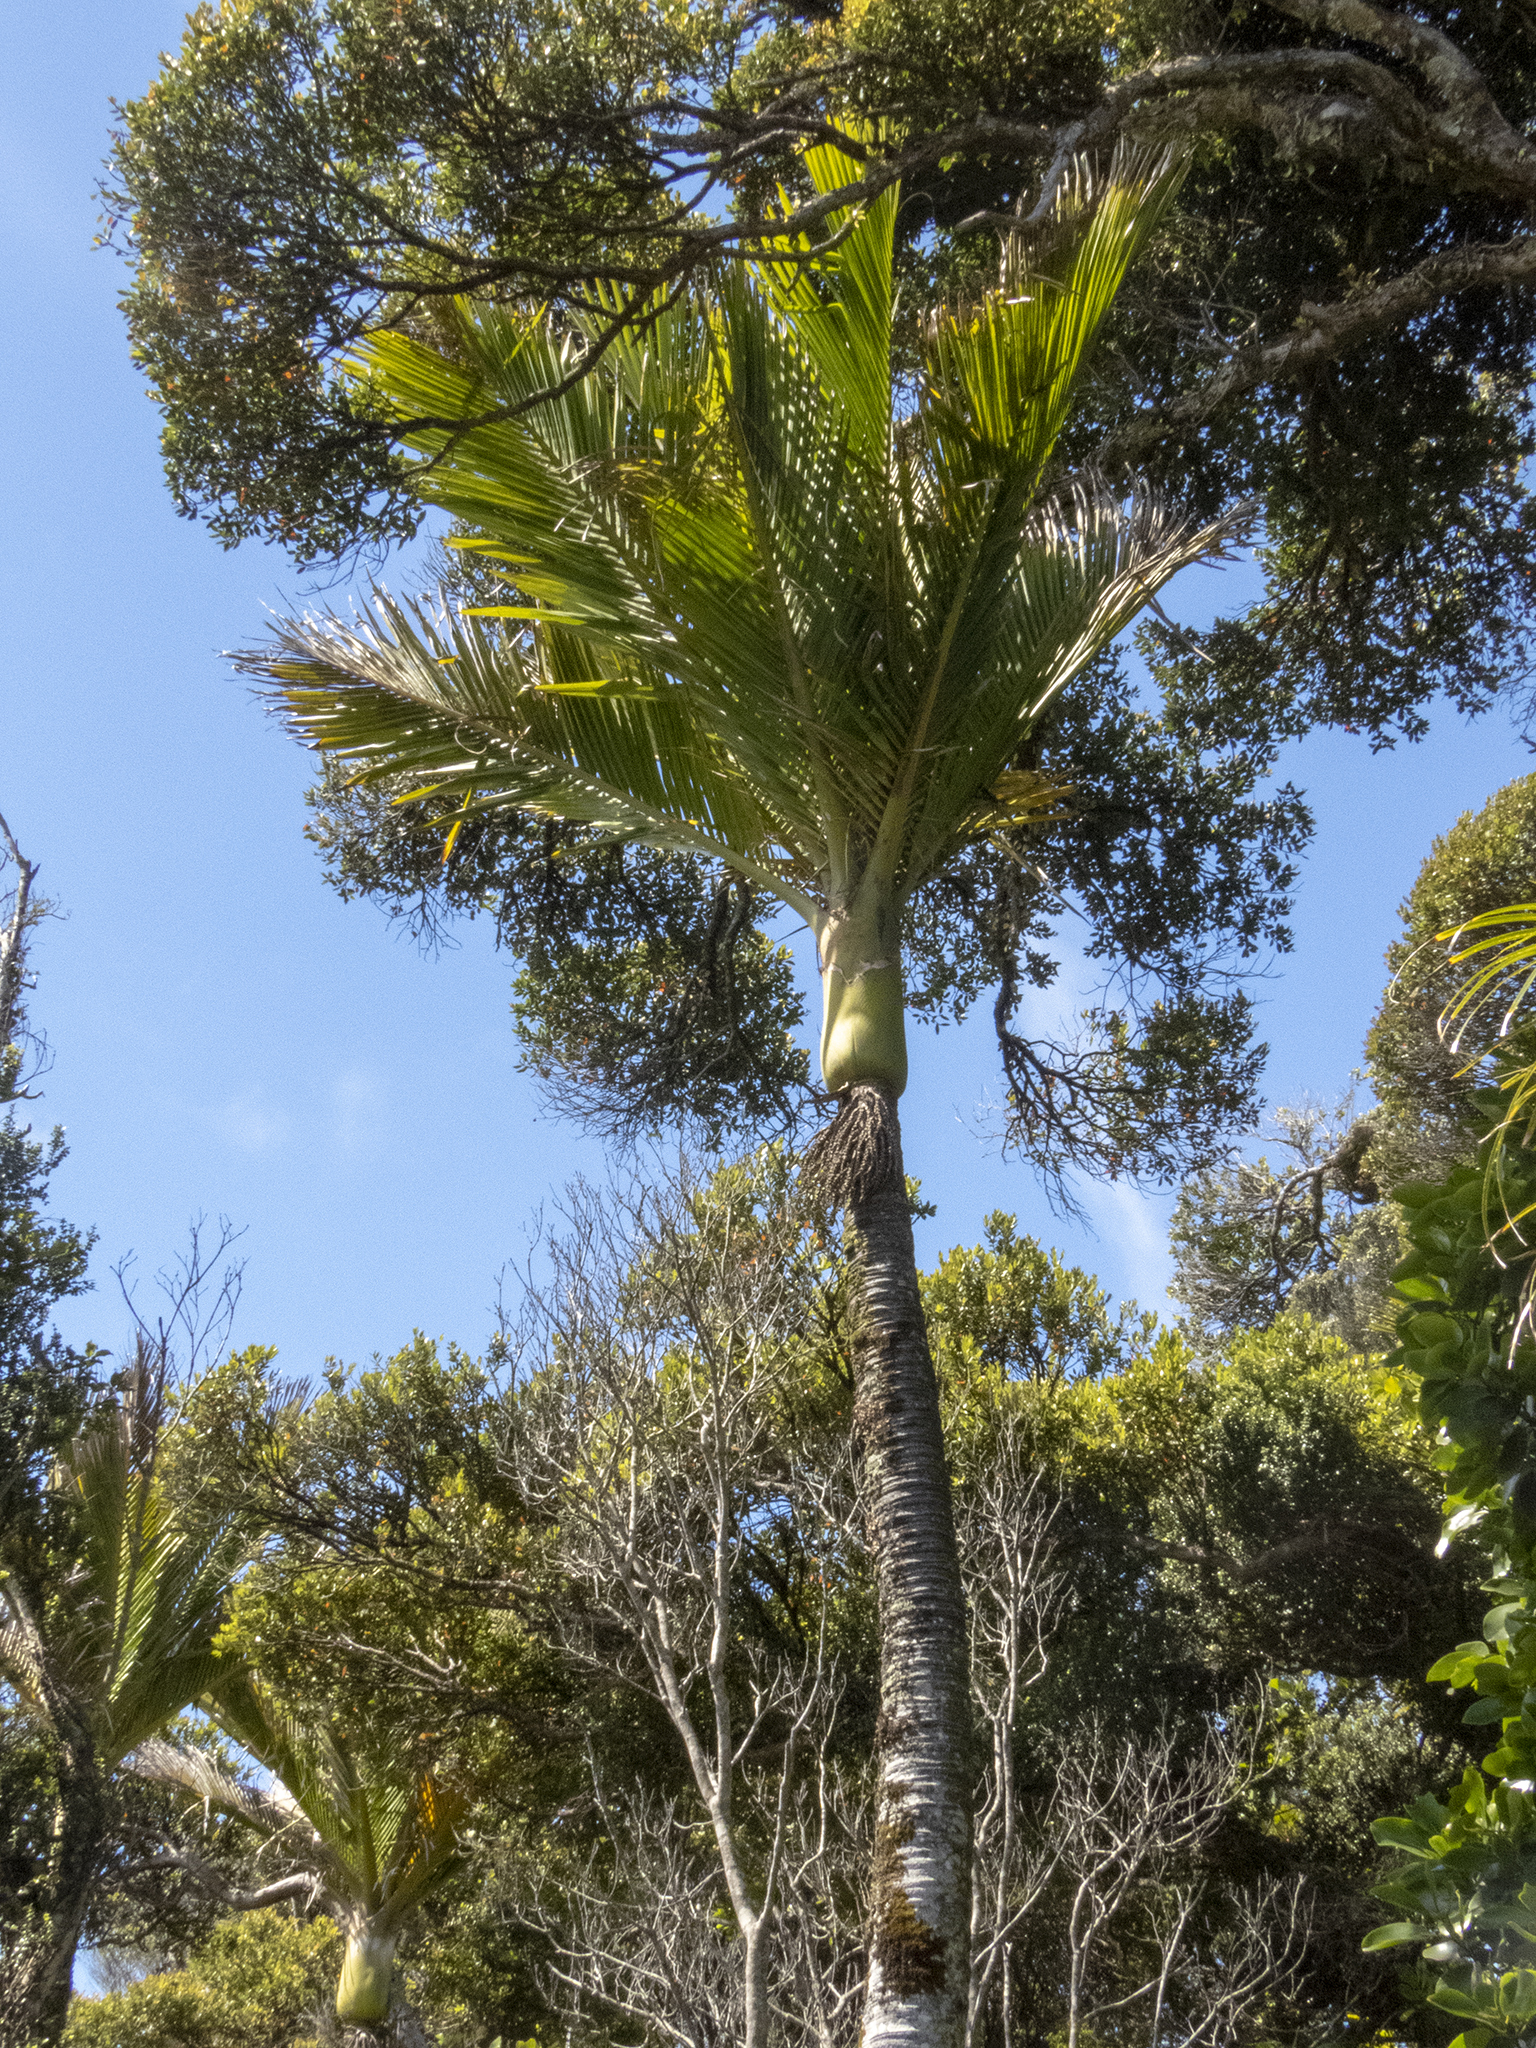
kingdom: Plantae
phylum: Tracheophyta
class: Liliopsida
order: Arecales
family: Arecaceae
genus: Rhopalostylis
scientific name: Rhopalostylis sapida
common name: Feather-duster palm
